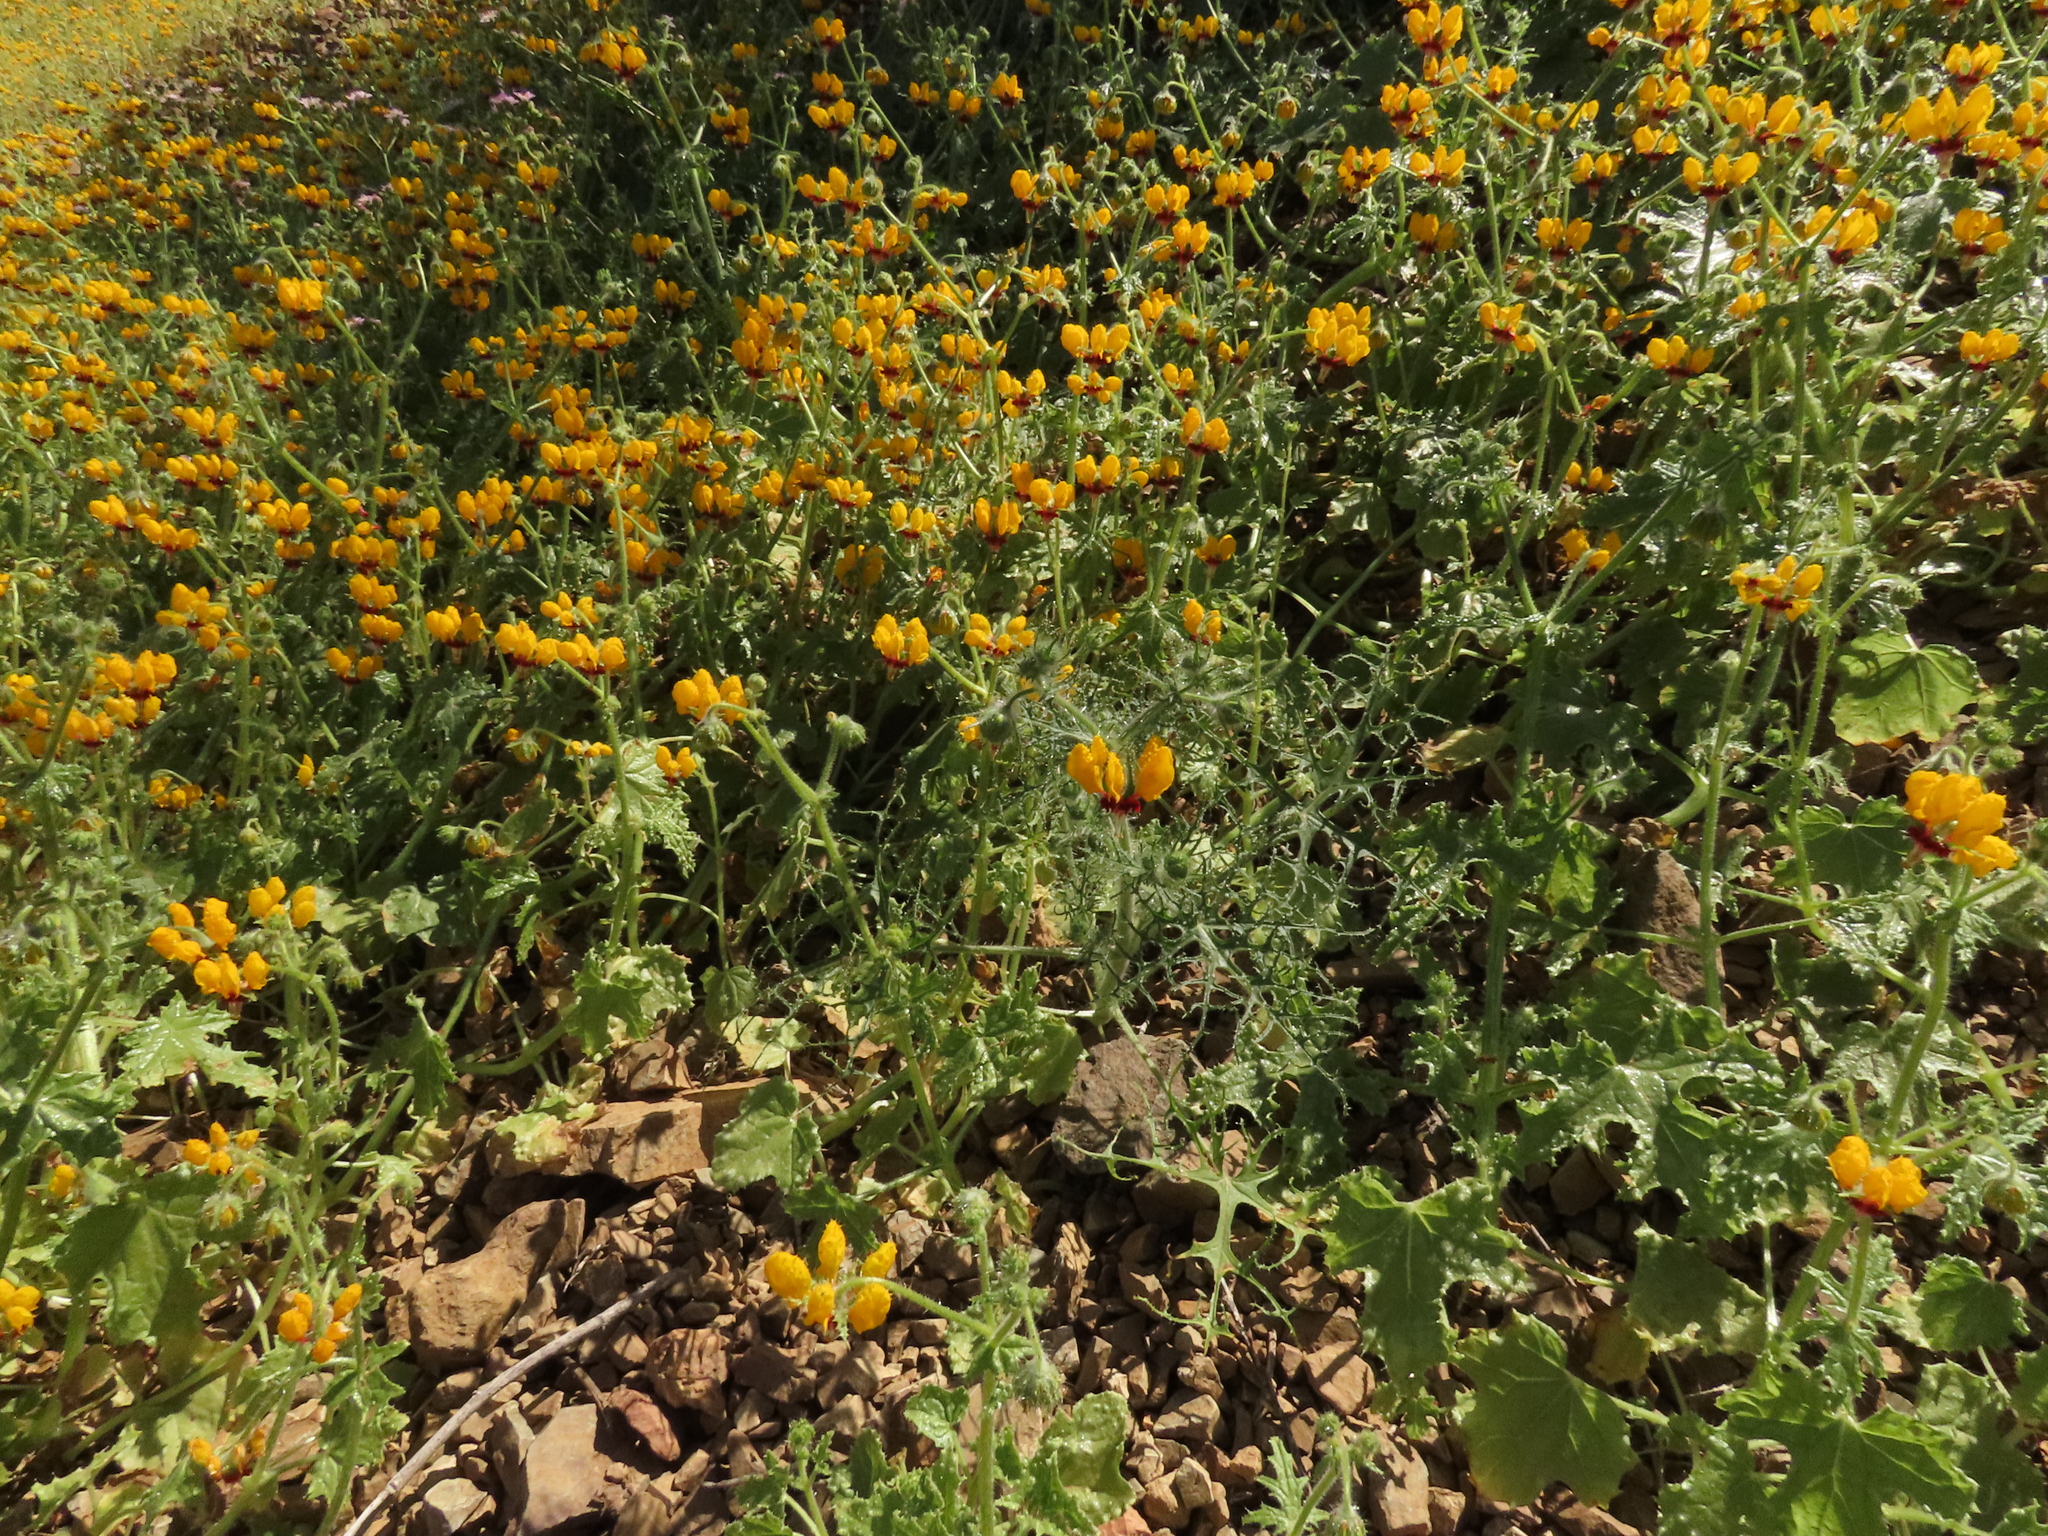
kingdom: Plantae
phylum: Tracheophyta
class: Magnoliopsida
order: Cornales
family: Loasaceae
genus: Loasa
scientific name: Loasa multifida
